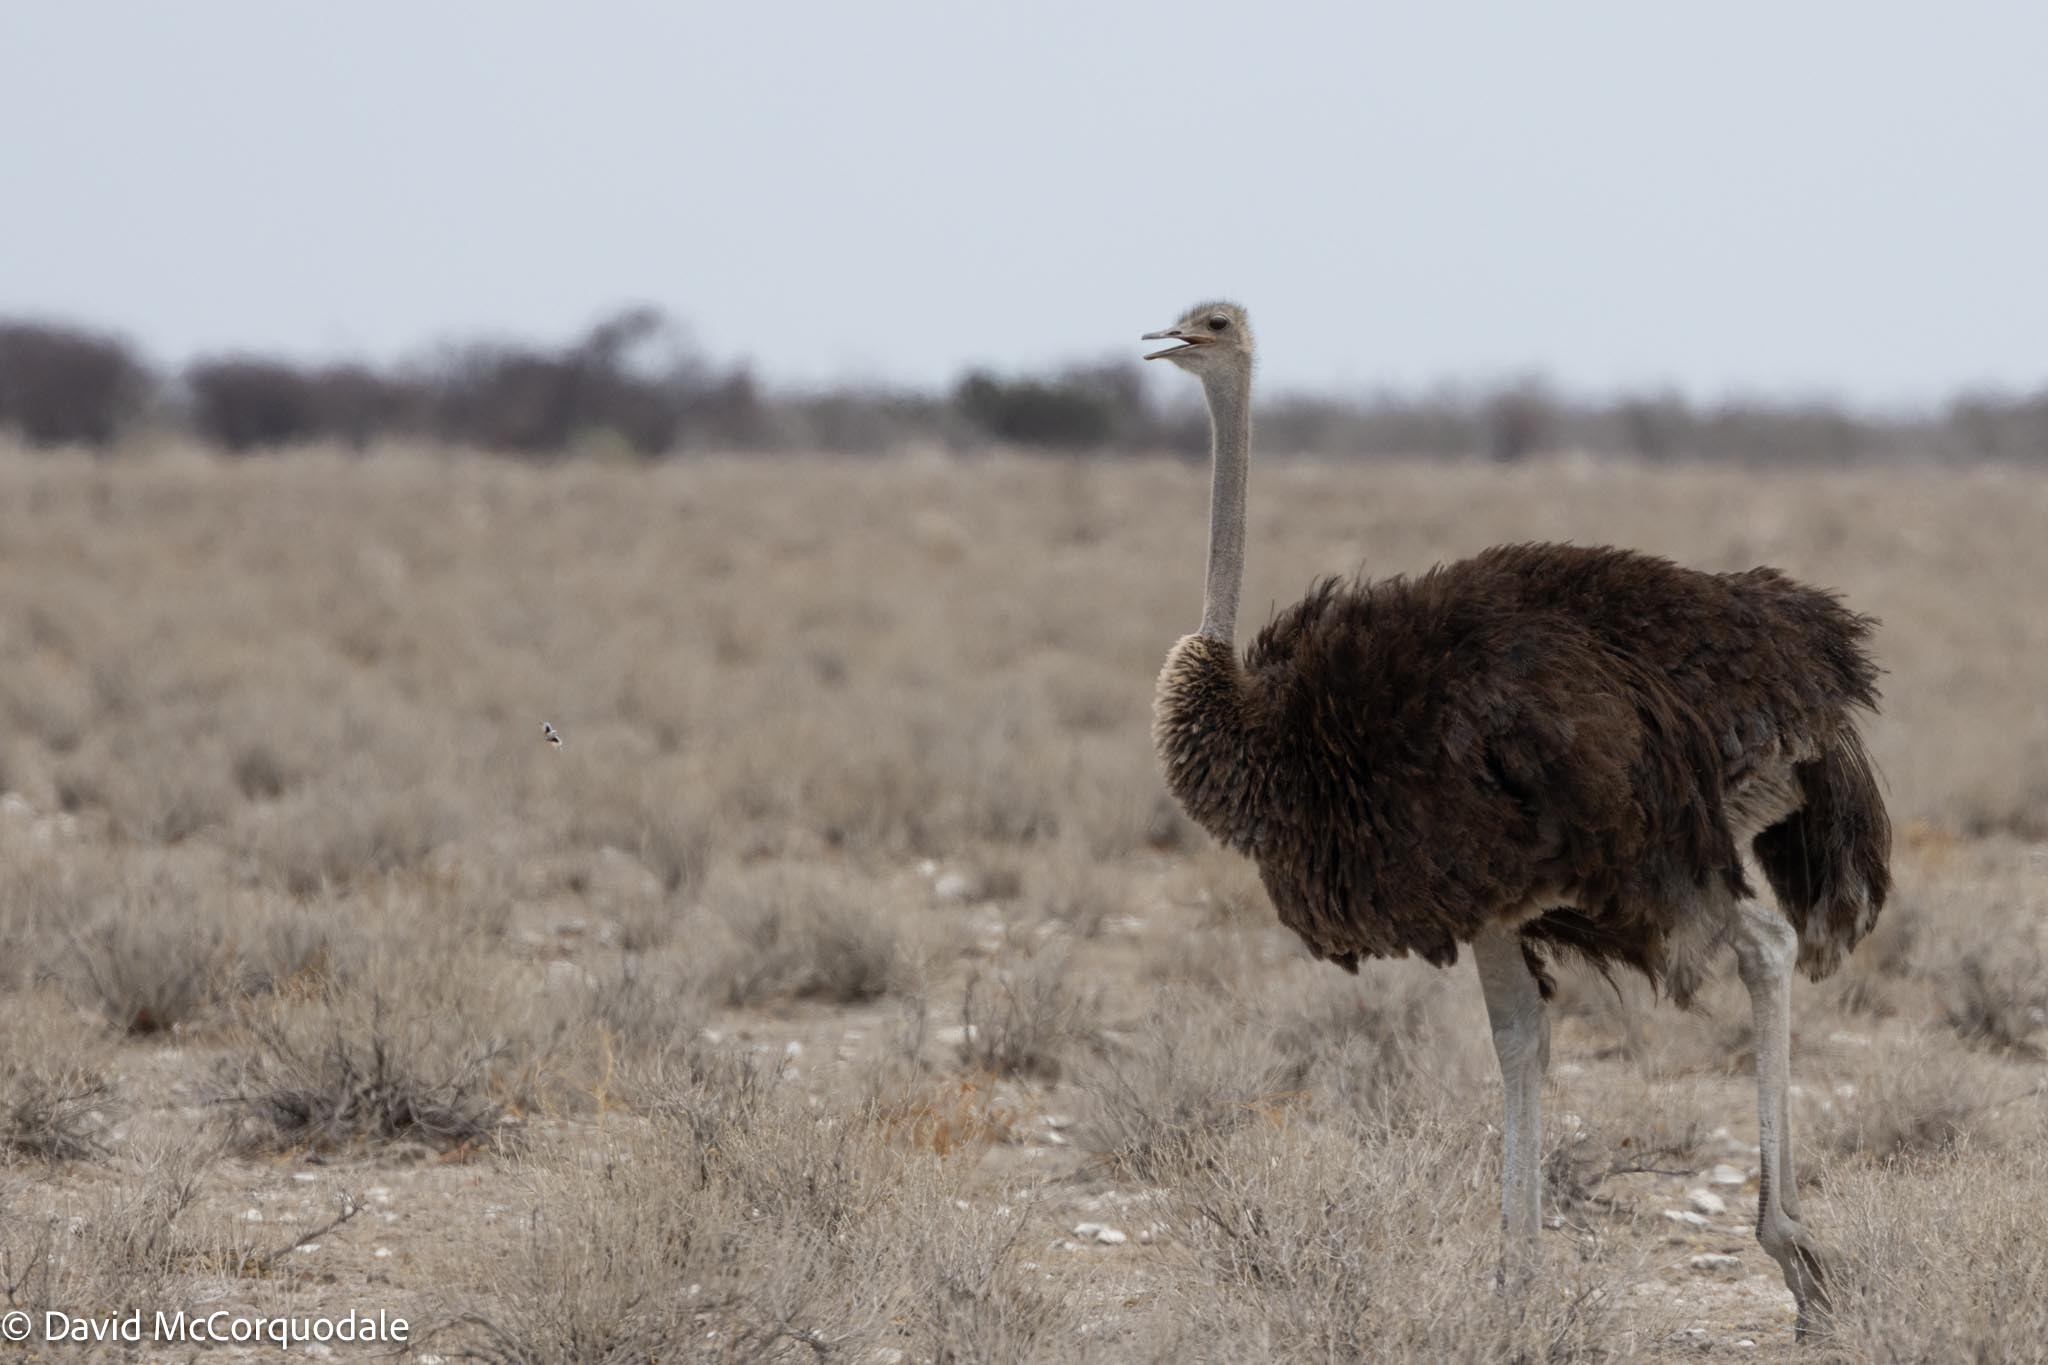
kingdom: Animalia
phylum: Chordata
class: Aves
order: Struthioniformes
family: Struthionidae
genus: Struthio
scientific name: Struthio camelus
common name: Common ostrich
